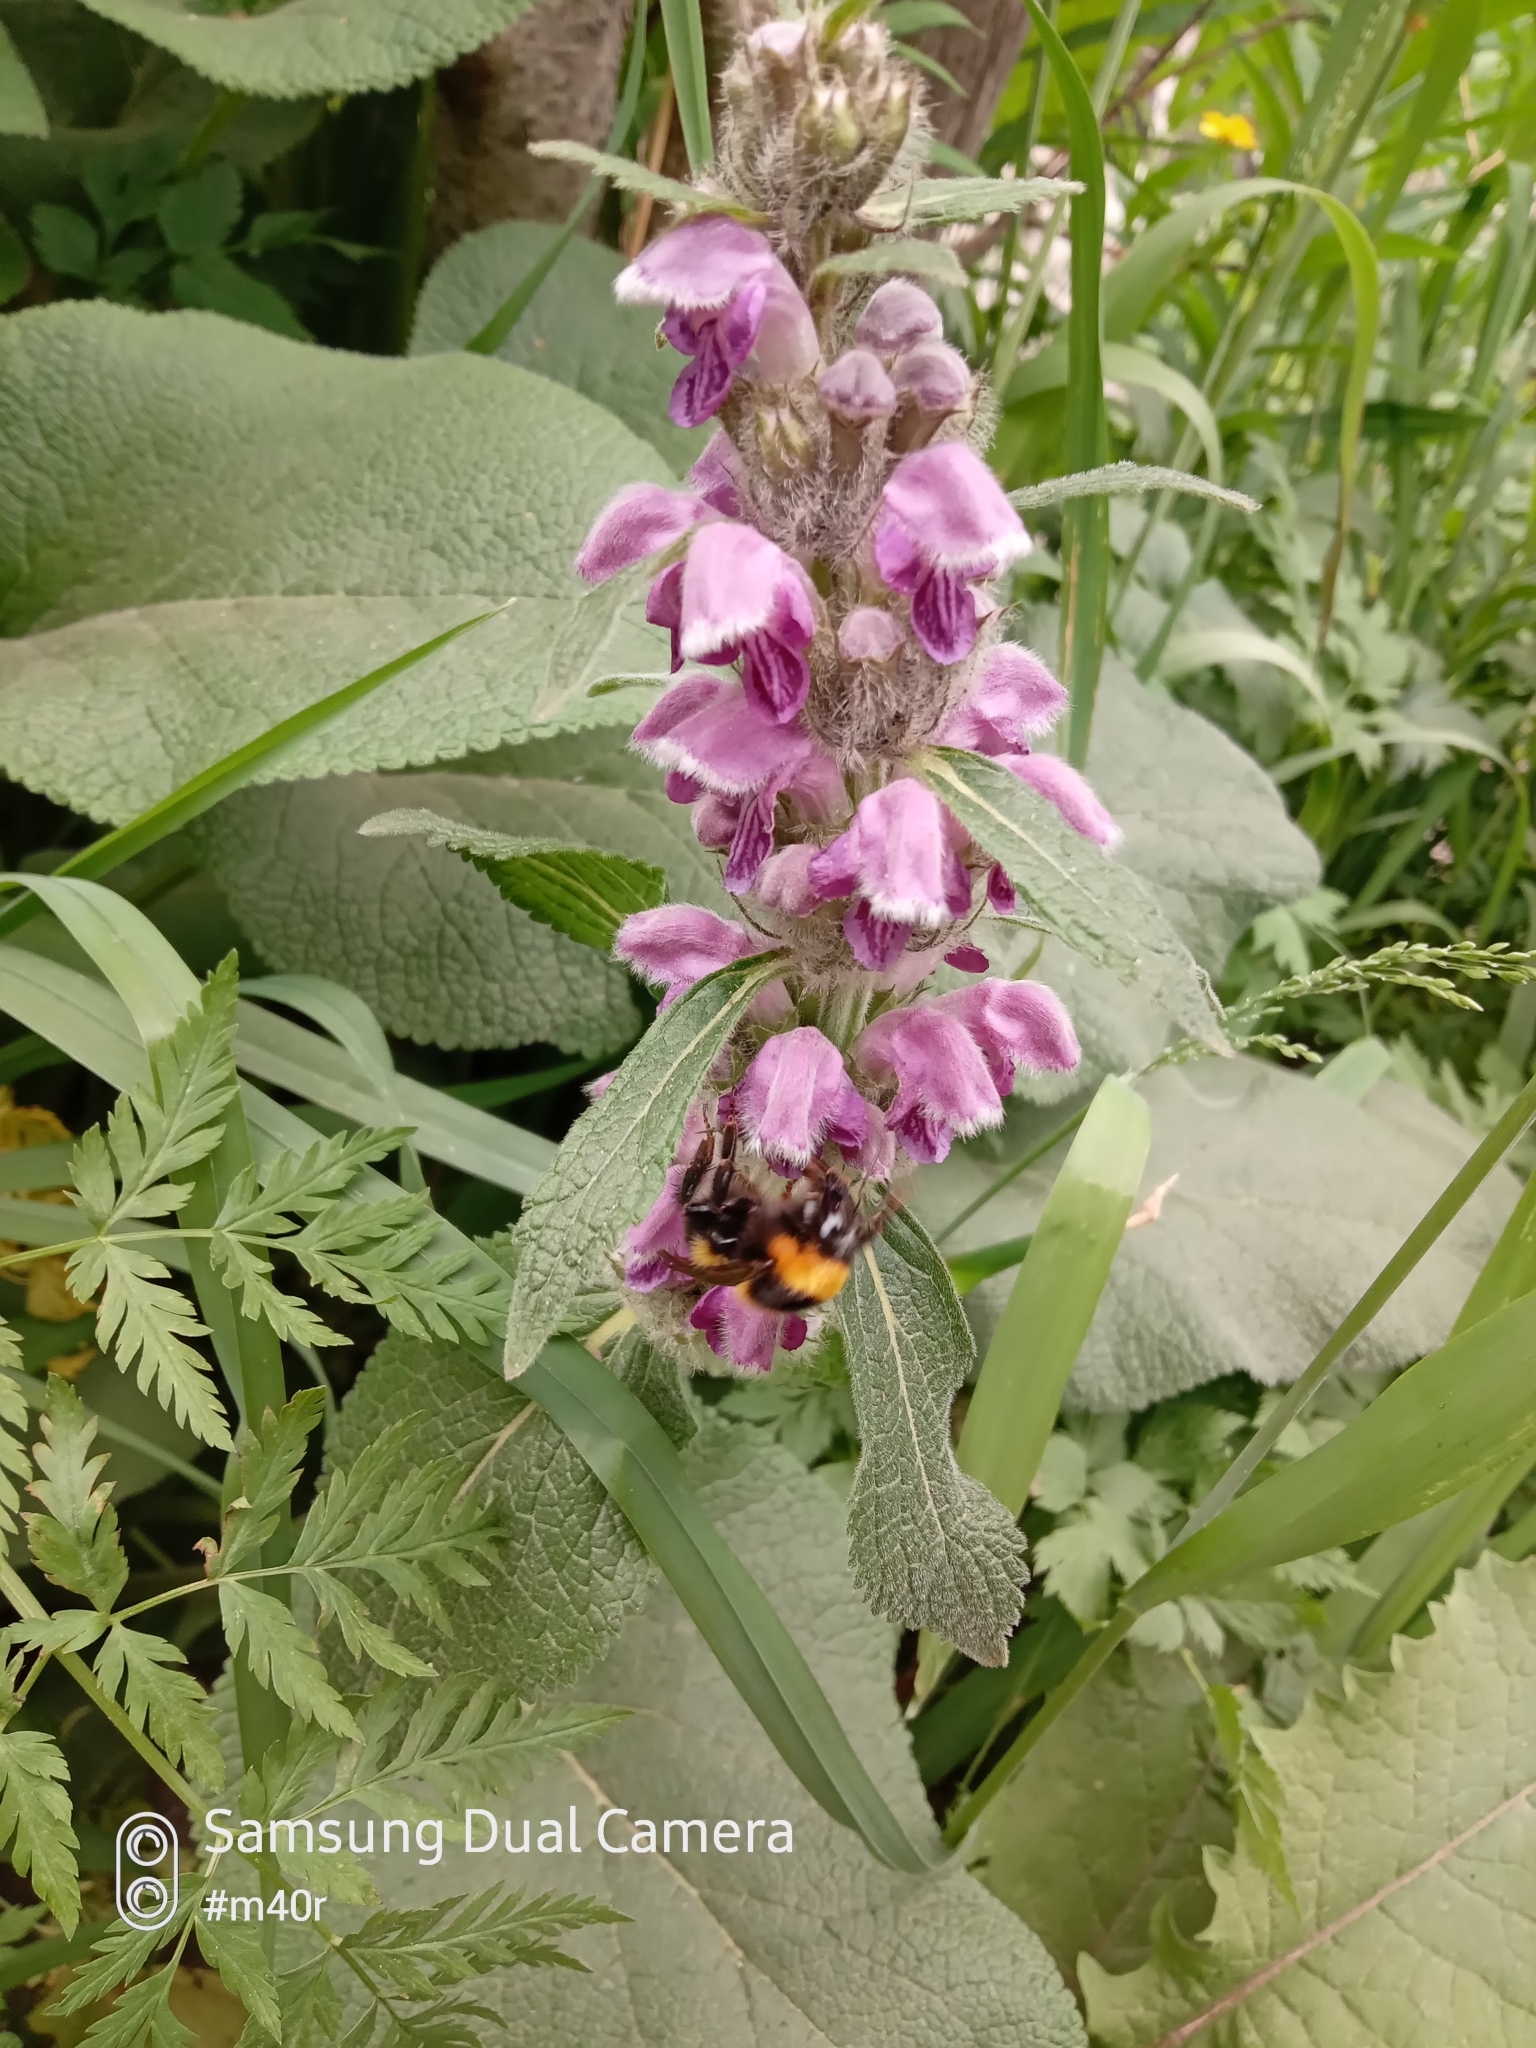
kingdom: Animalia
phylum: Arthropoda
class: Insecta
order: Hymenoptera
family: Apidae
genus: Bombus
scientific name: Bombus hortorum
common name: Garden bumblebee
